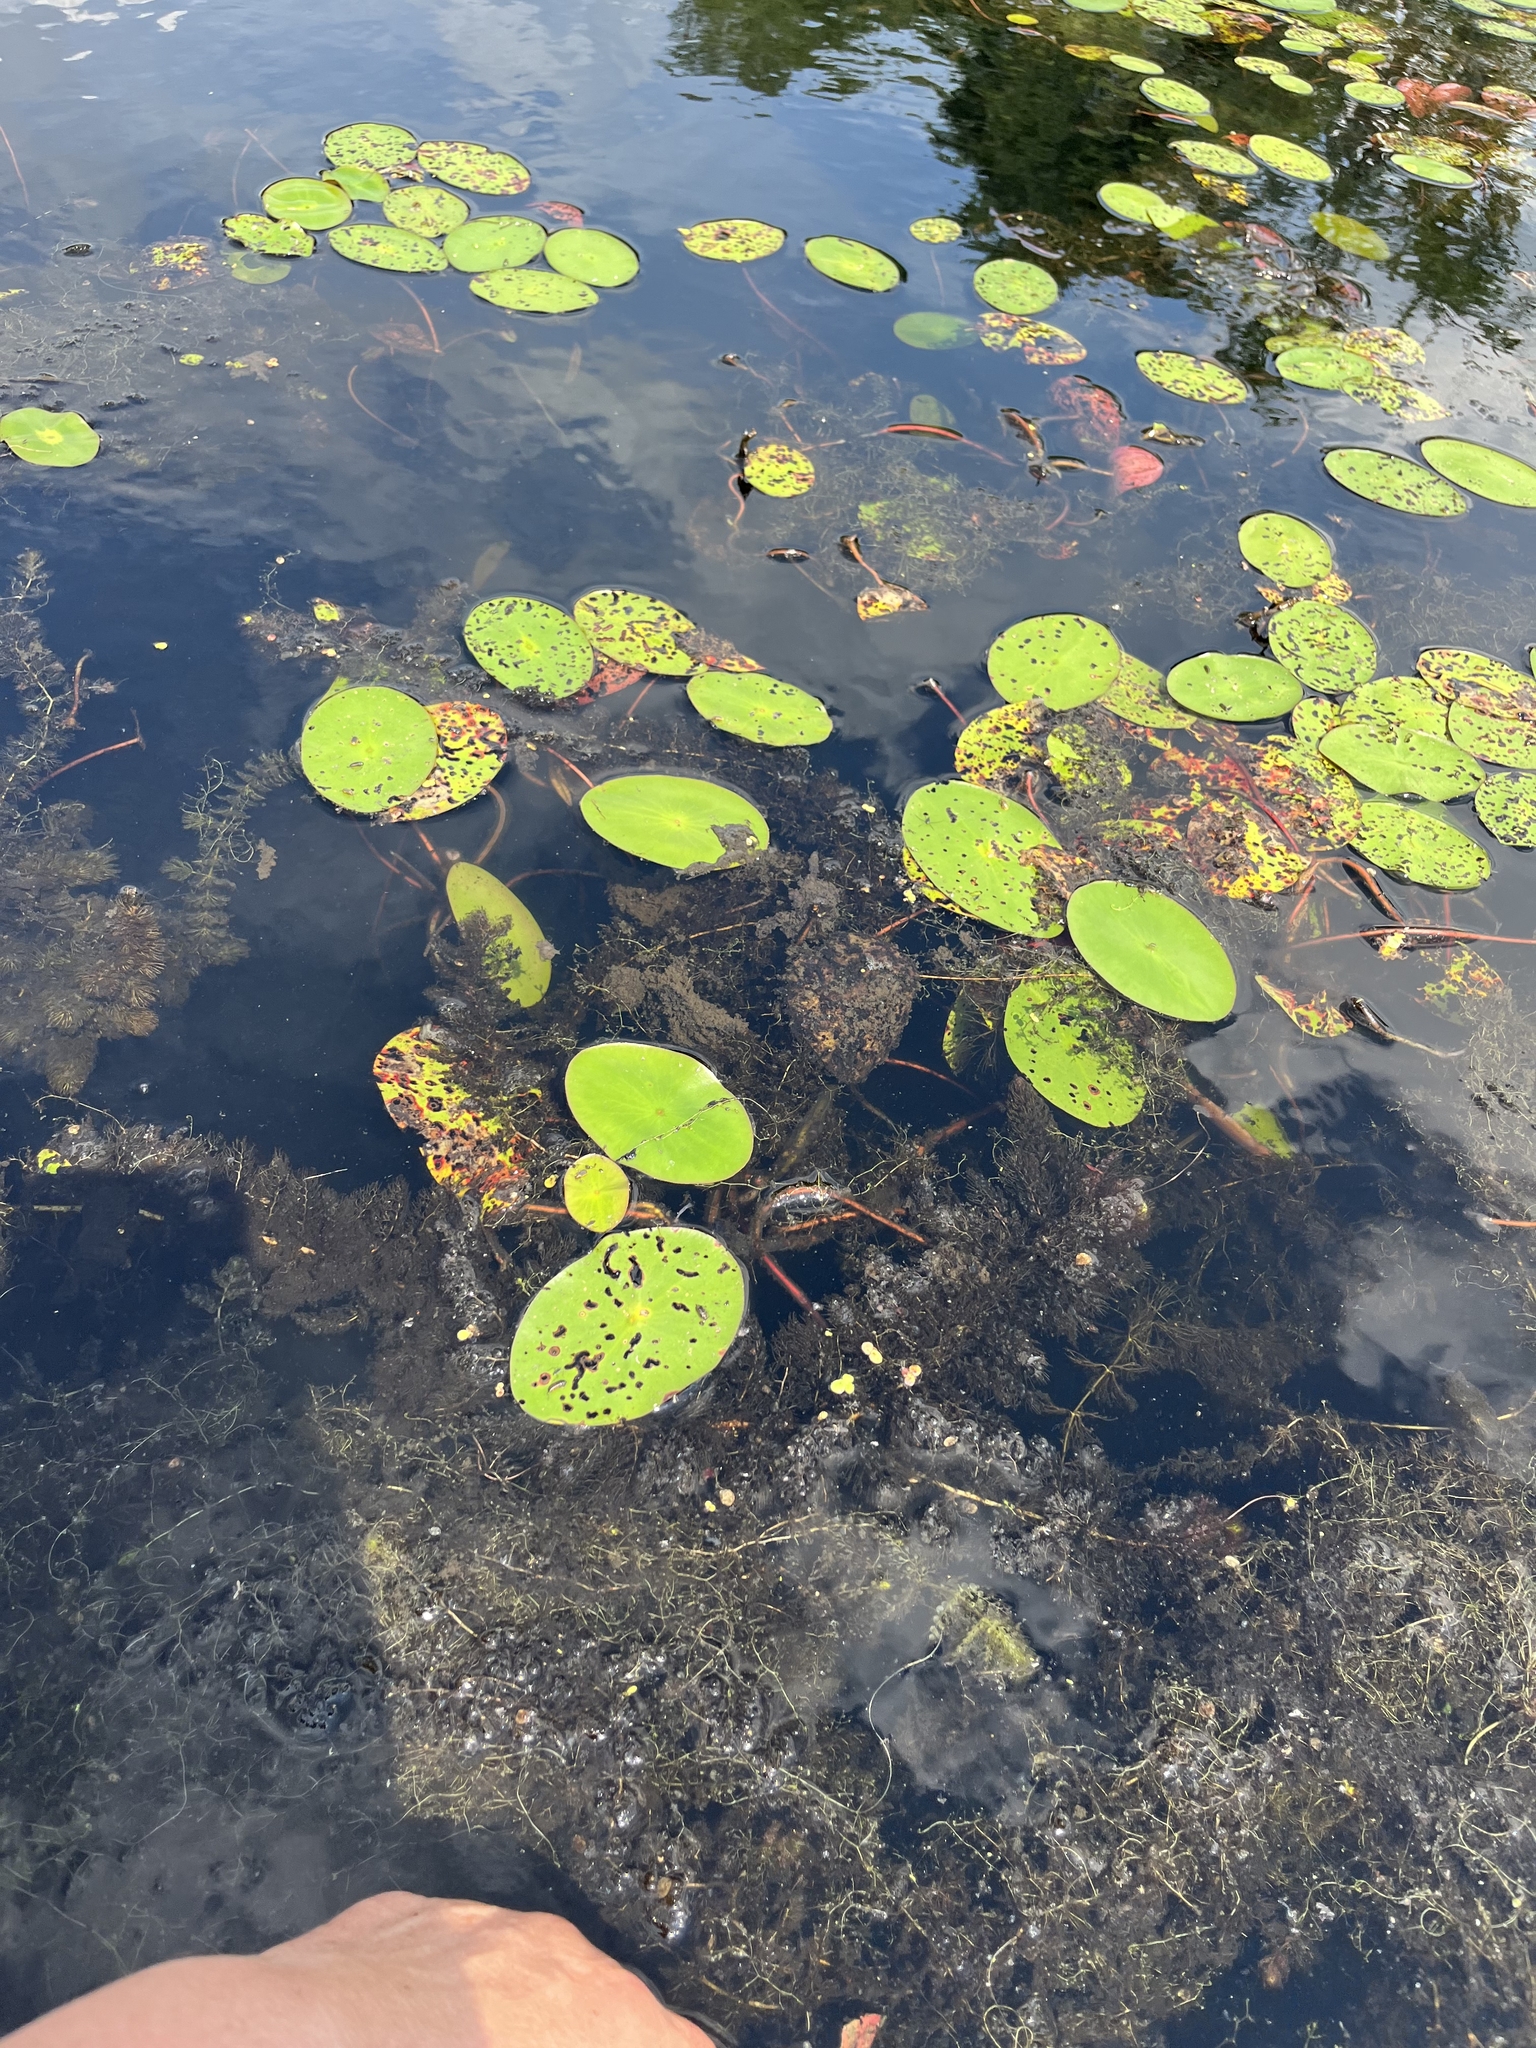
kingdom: Plantae
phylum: Tracheophyta
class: Magnoliopsida
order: Nymphaeales
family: Cabombaceae
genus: Brasenia
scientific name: Brasenia schreberi
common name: Water-shield
